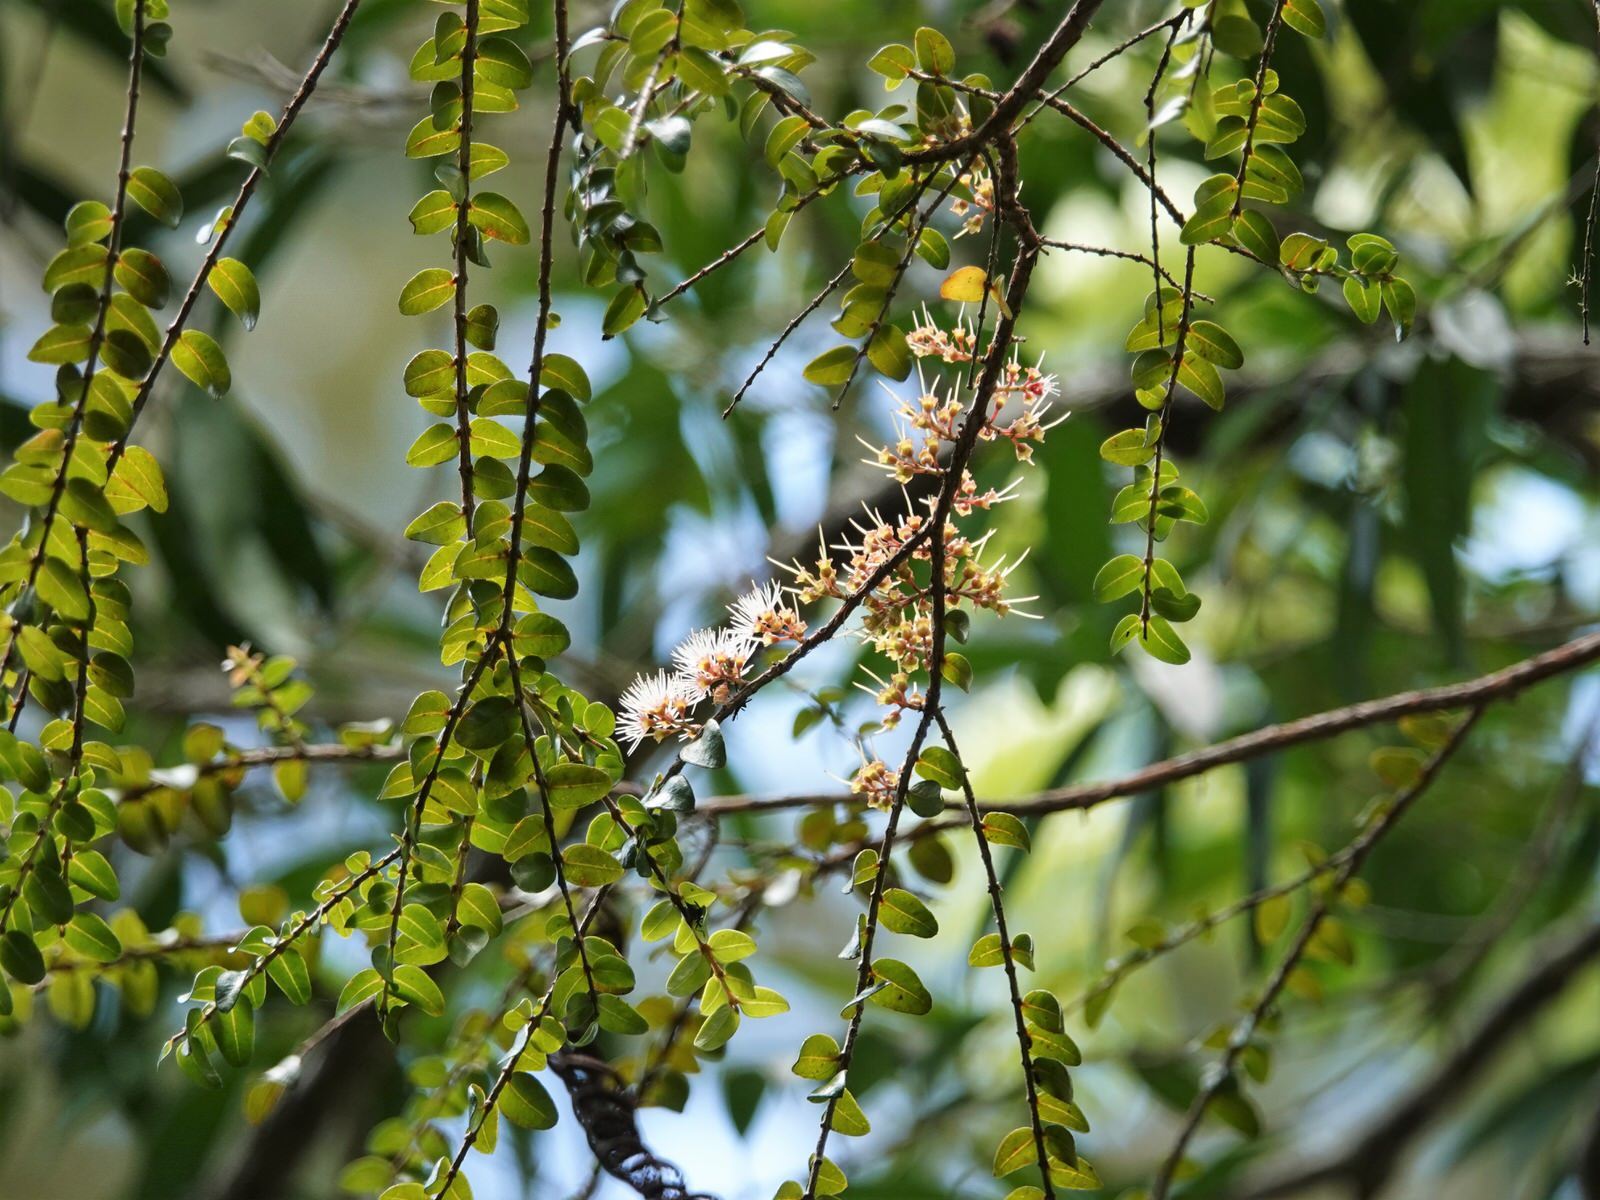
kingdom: Plantae
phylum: Tracheophyta
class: Magnoliopsida
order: Myrtales
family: Myrtaceae
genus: Metrosideros
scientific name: Metrosideros diffusa
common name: Small ratavine
